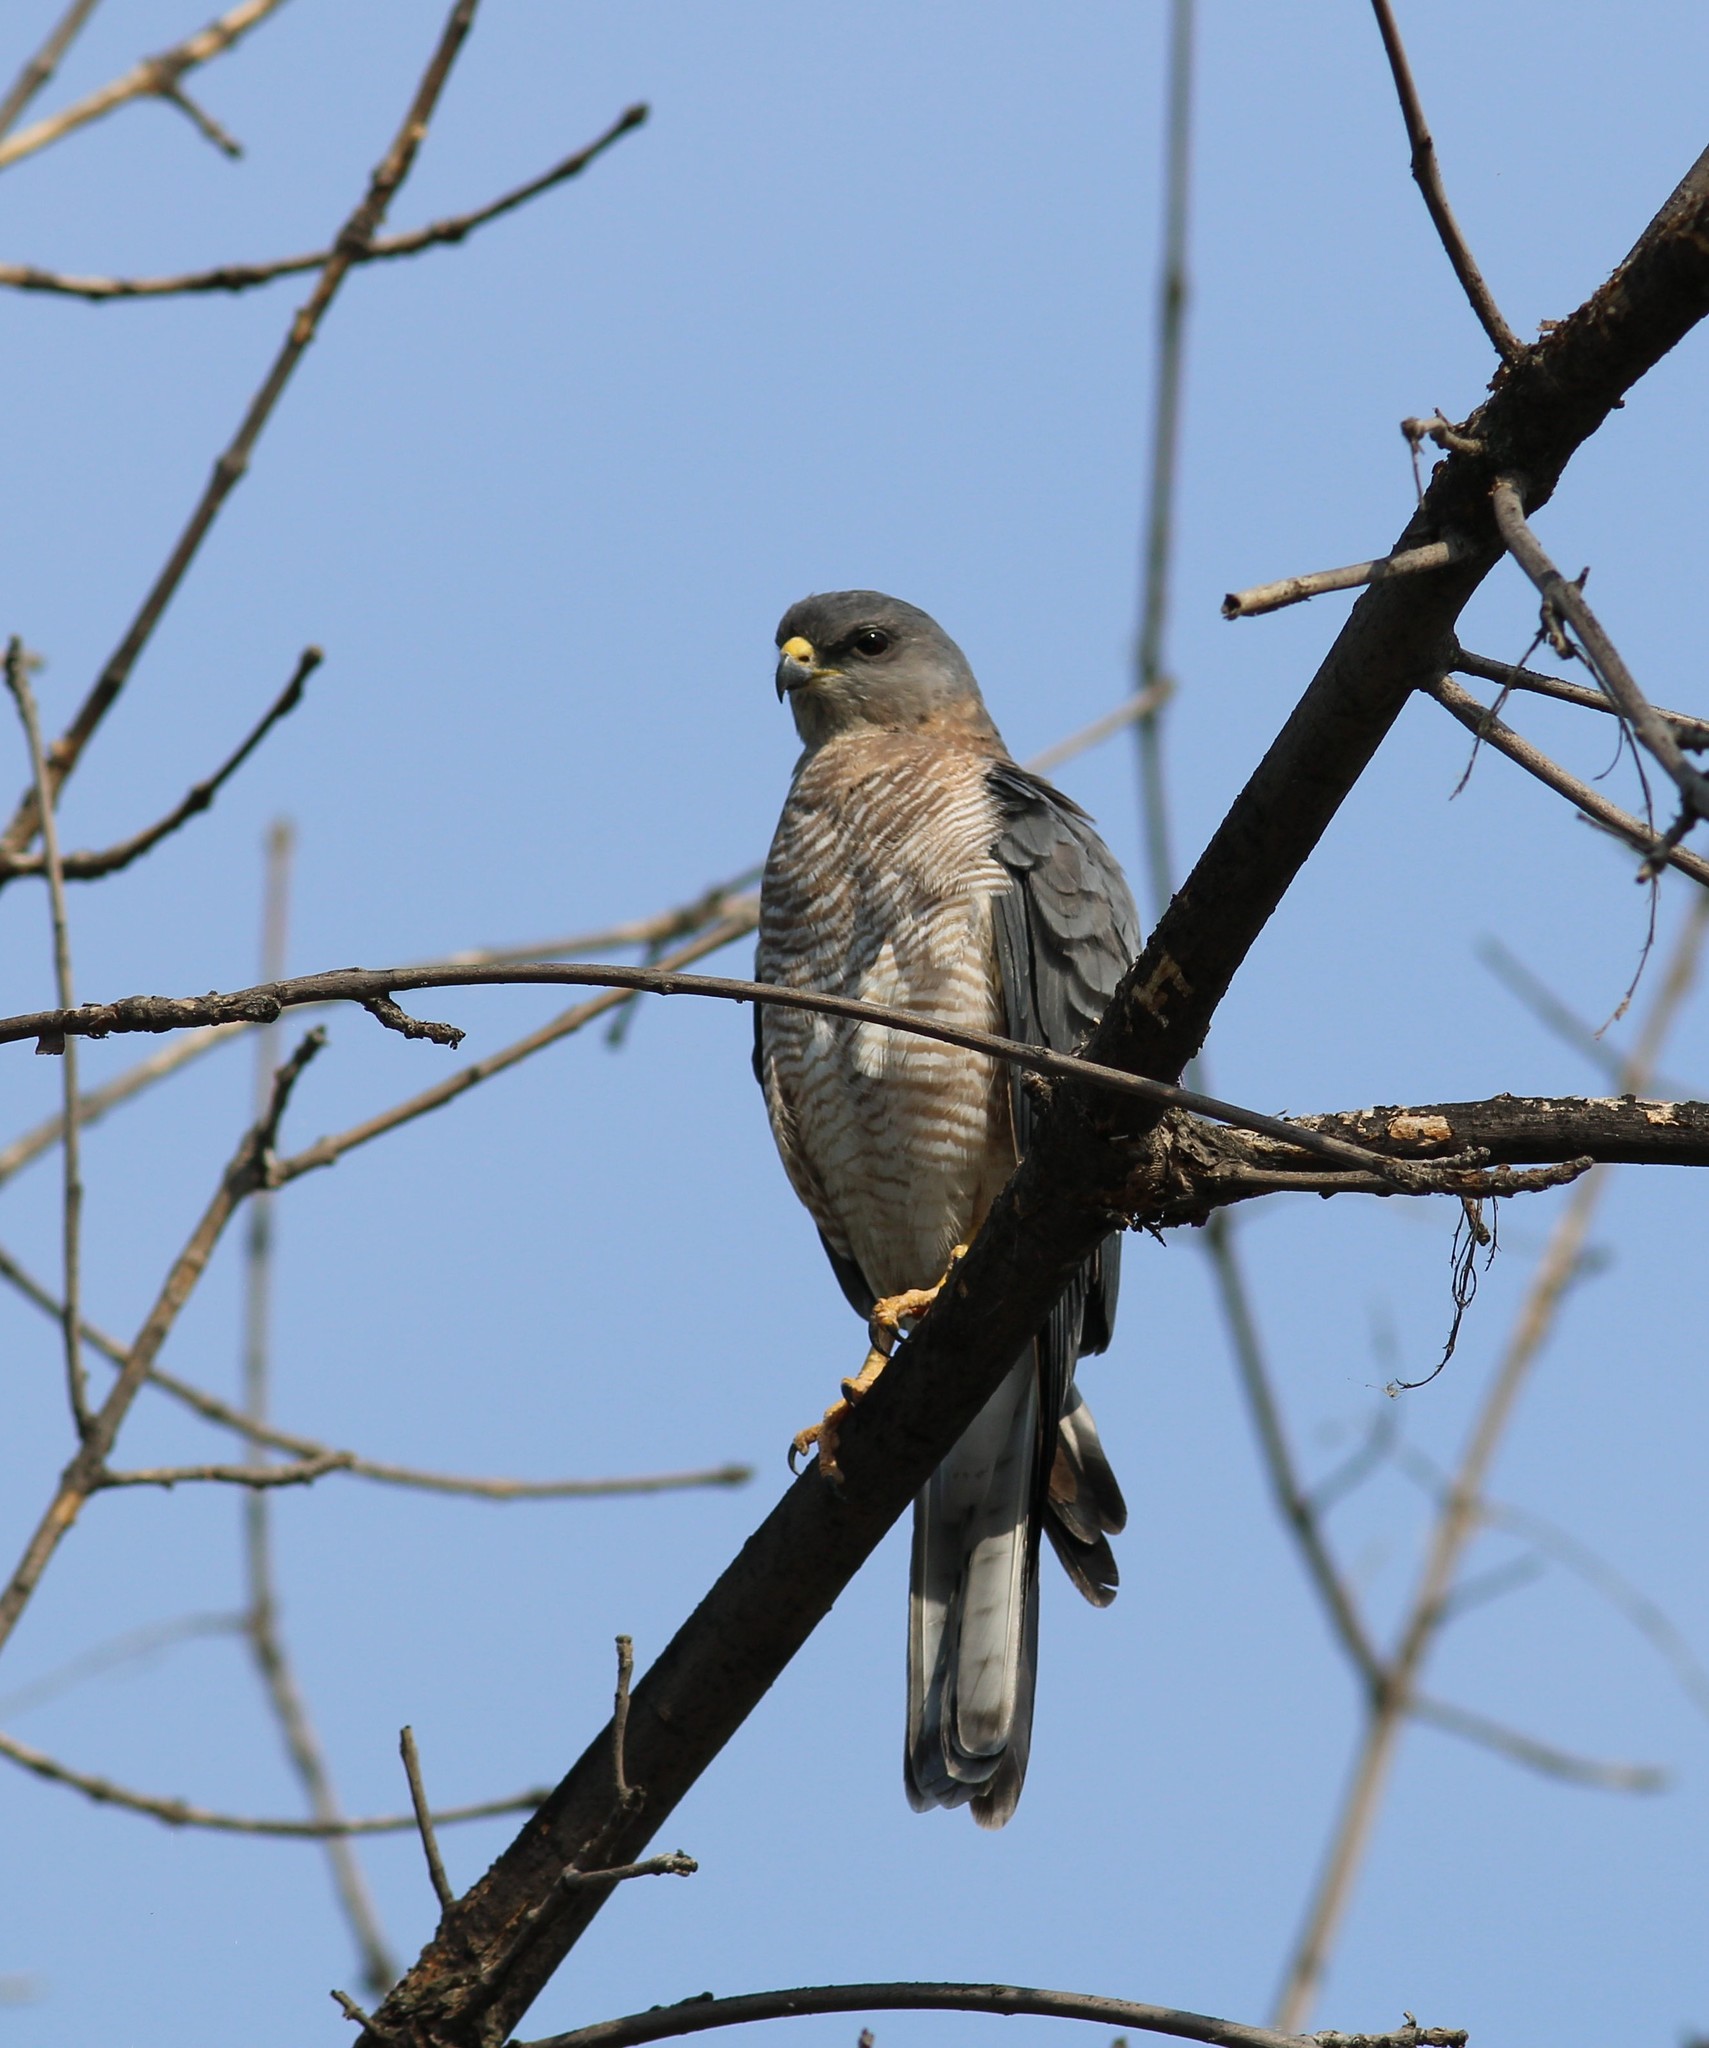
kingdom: Animalia
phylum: Chordata
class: Aves
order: Accipitriformes
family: Accipitridae
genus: Accipiter
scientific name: Accipiter brevipes
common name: Levant sparrowhawk
